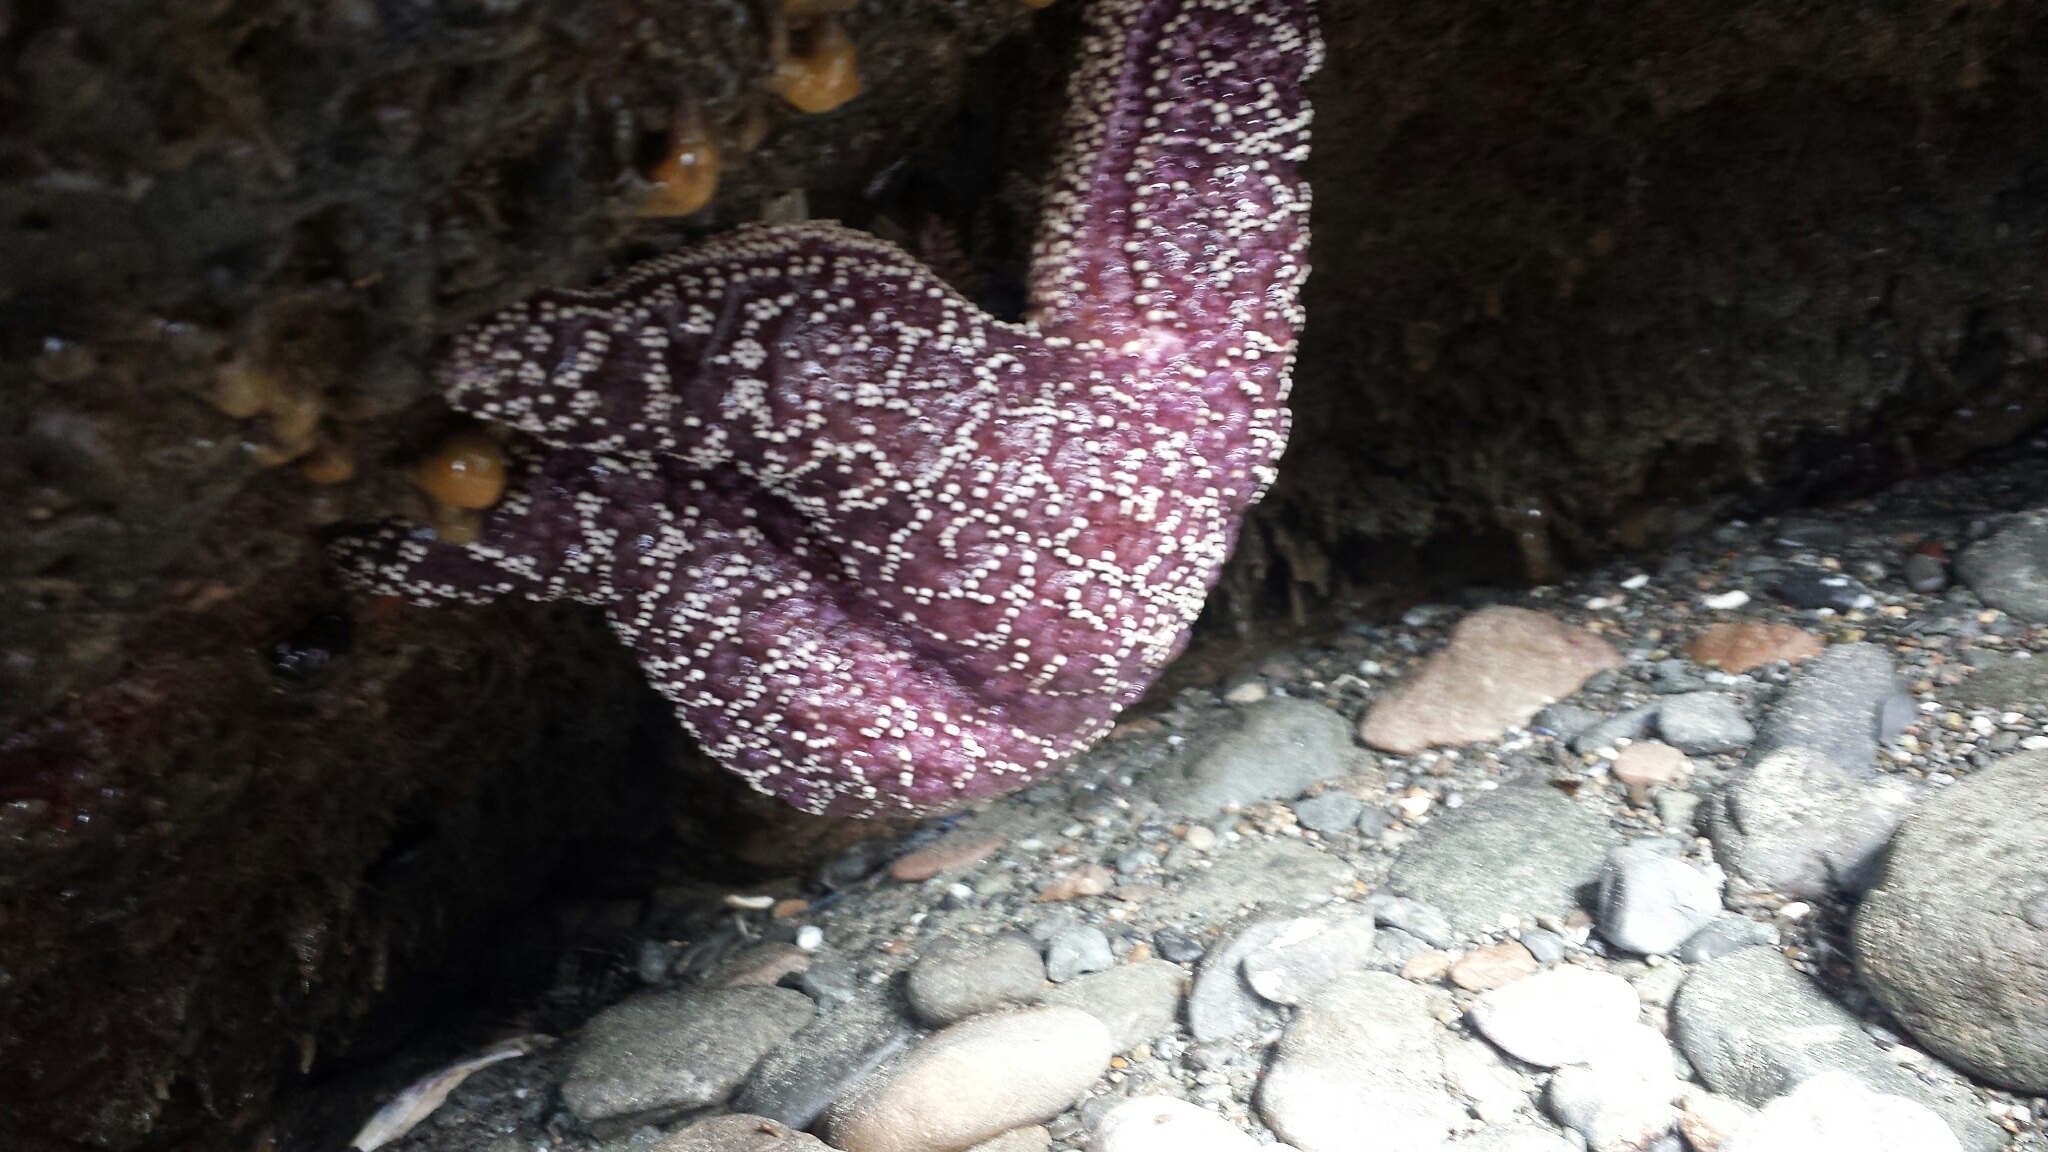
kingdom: Animalia
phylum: Echinodermata
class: Asteroidea
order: Forcipulatida
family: Asteriidae
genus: Pisaster
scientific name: Pisaster ochraceus
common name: Ochre stars
